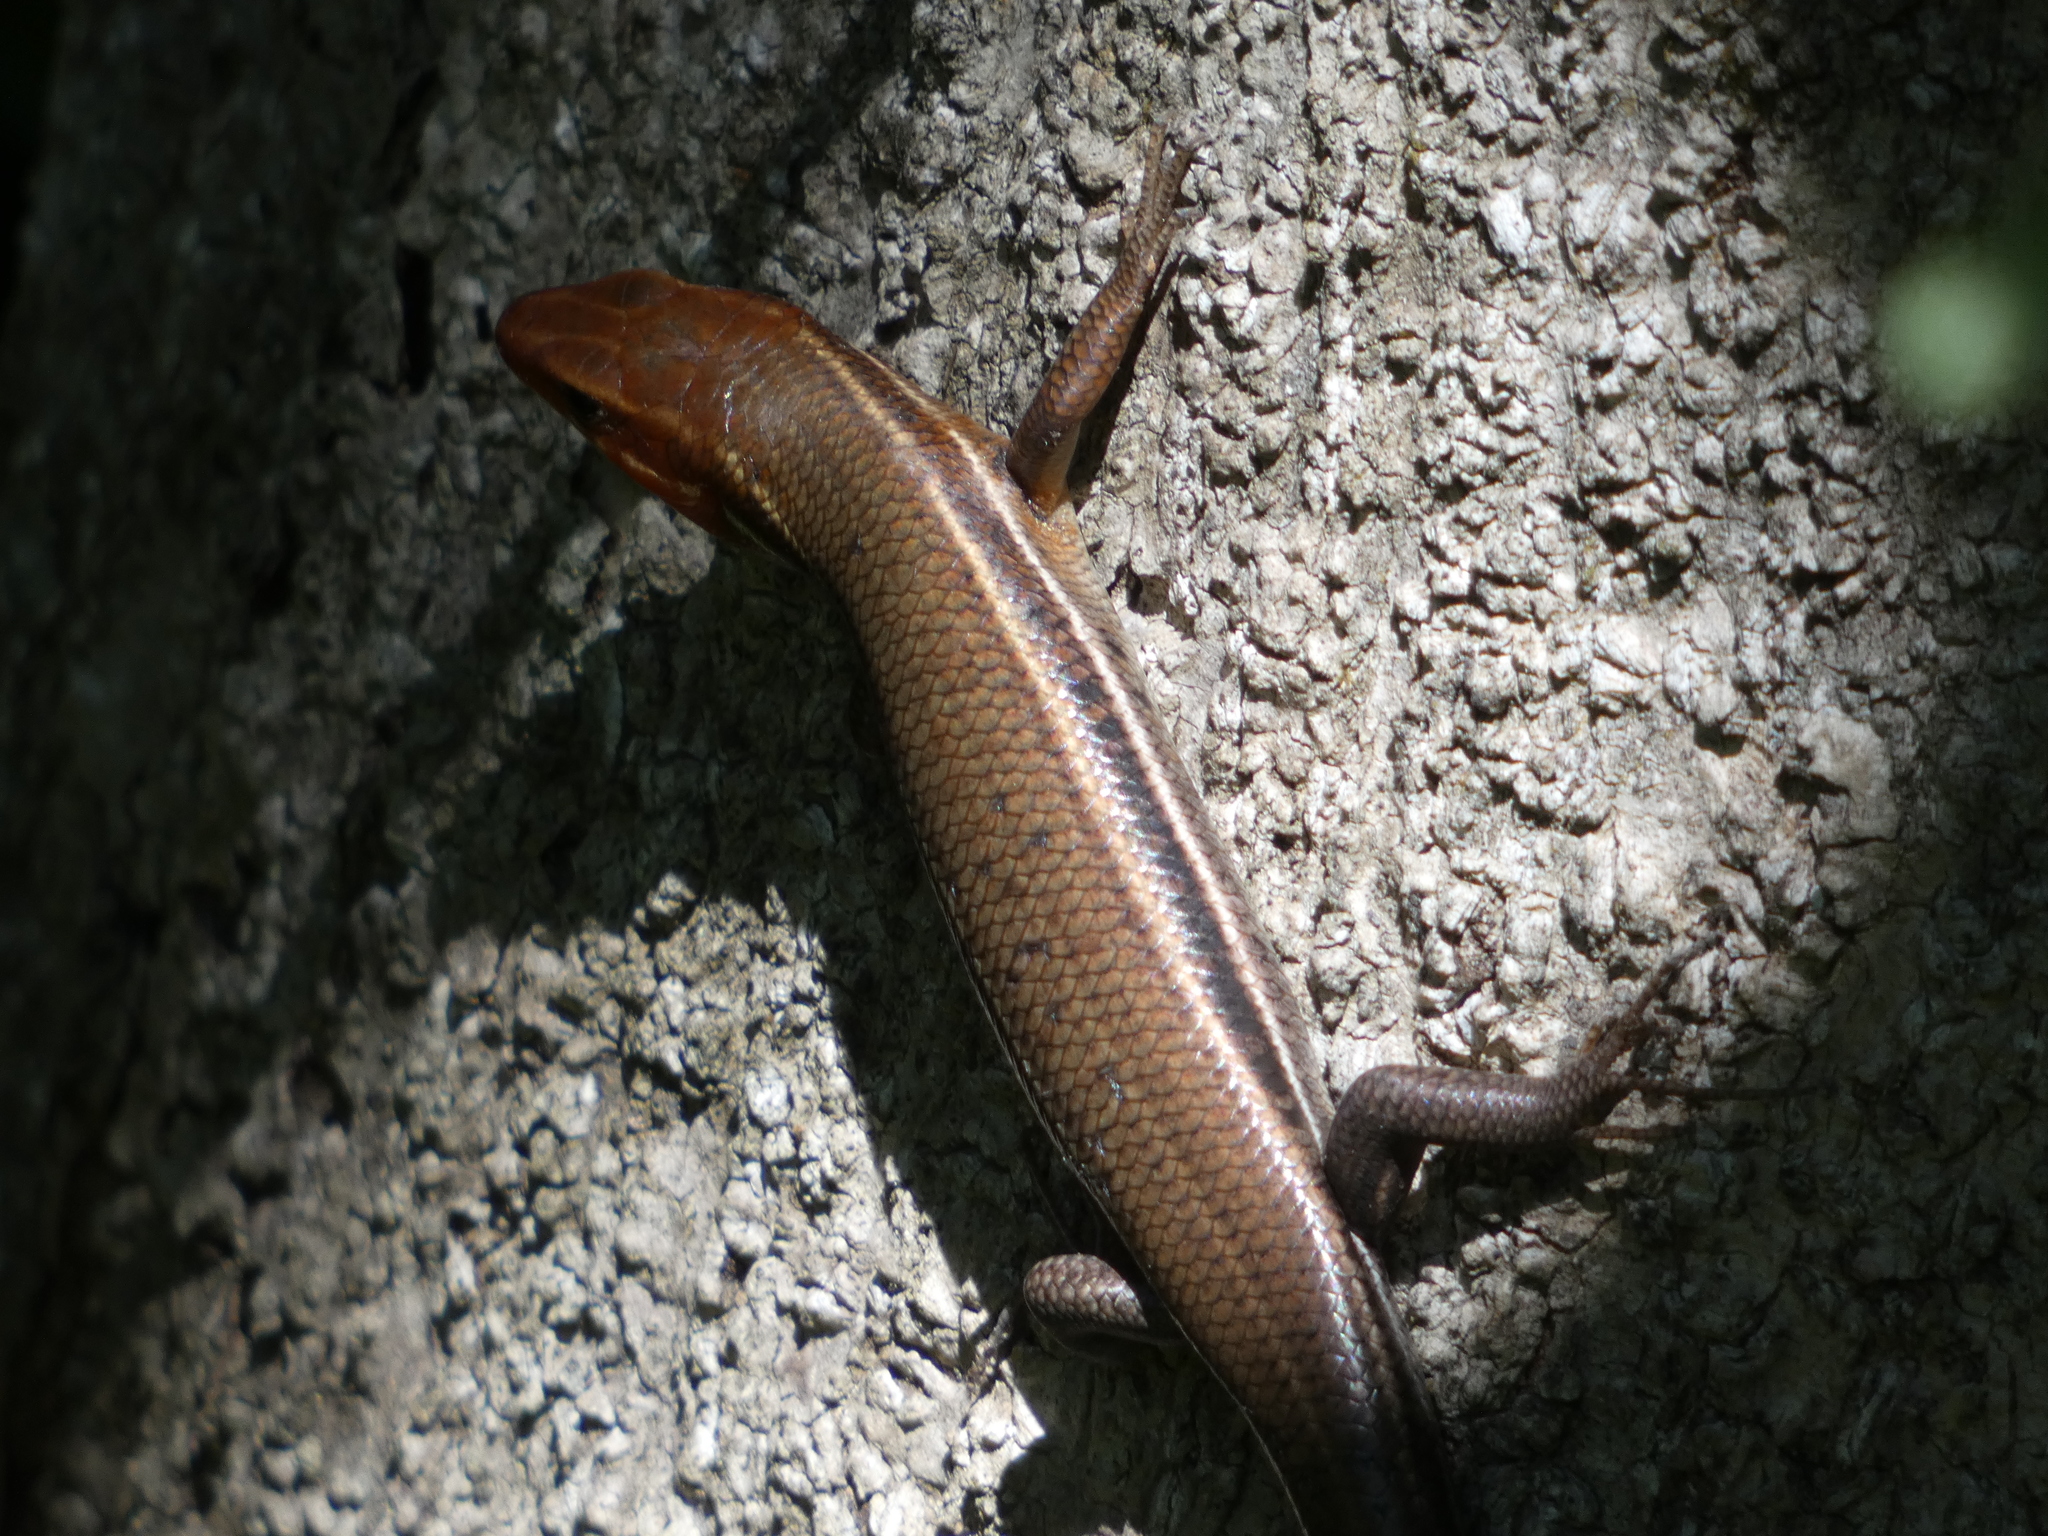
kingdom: Animalia
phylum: Chordata
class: Squamata
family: Scincidae
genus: Plestiodon
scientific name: Plestiodon inexpectatus
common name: Southeastern five-lined skink
